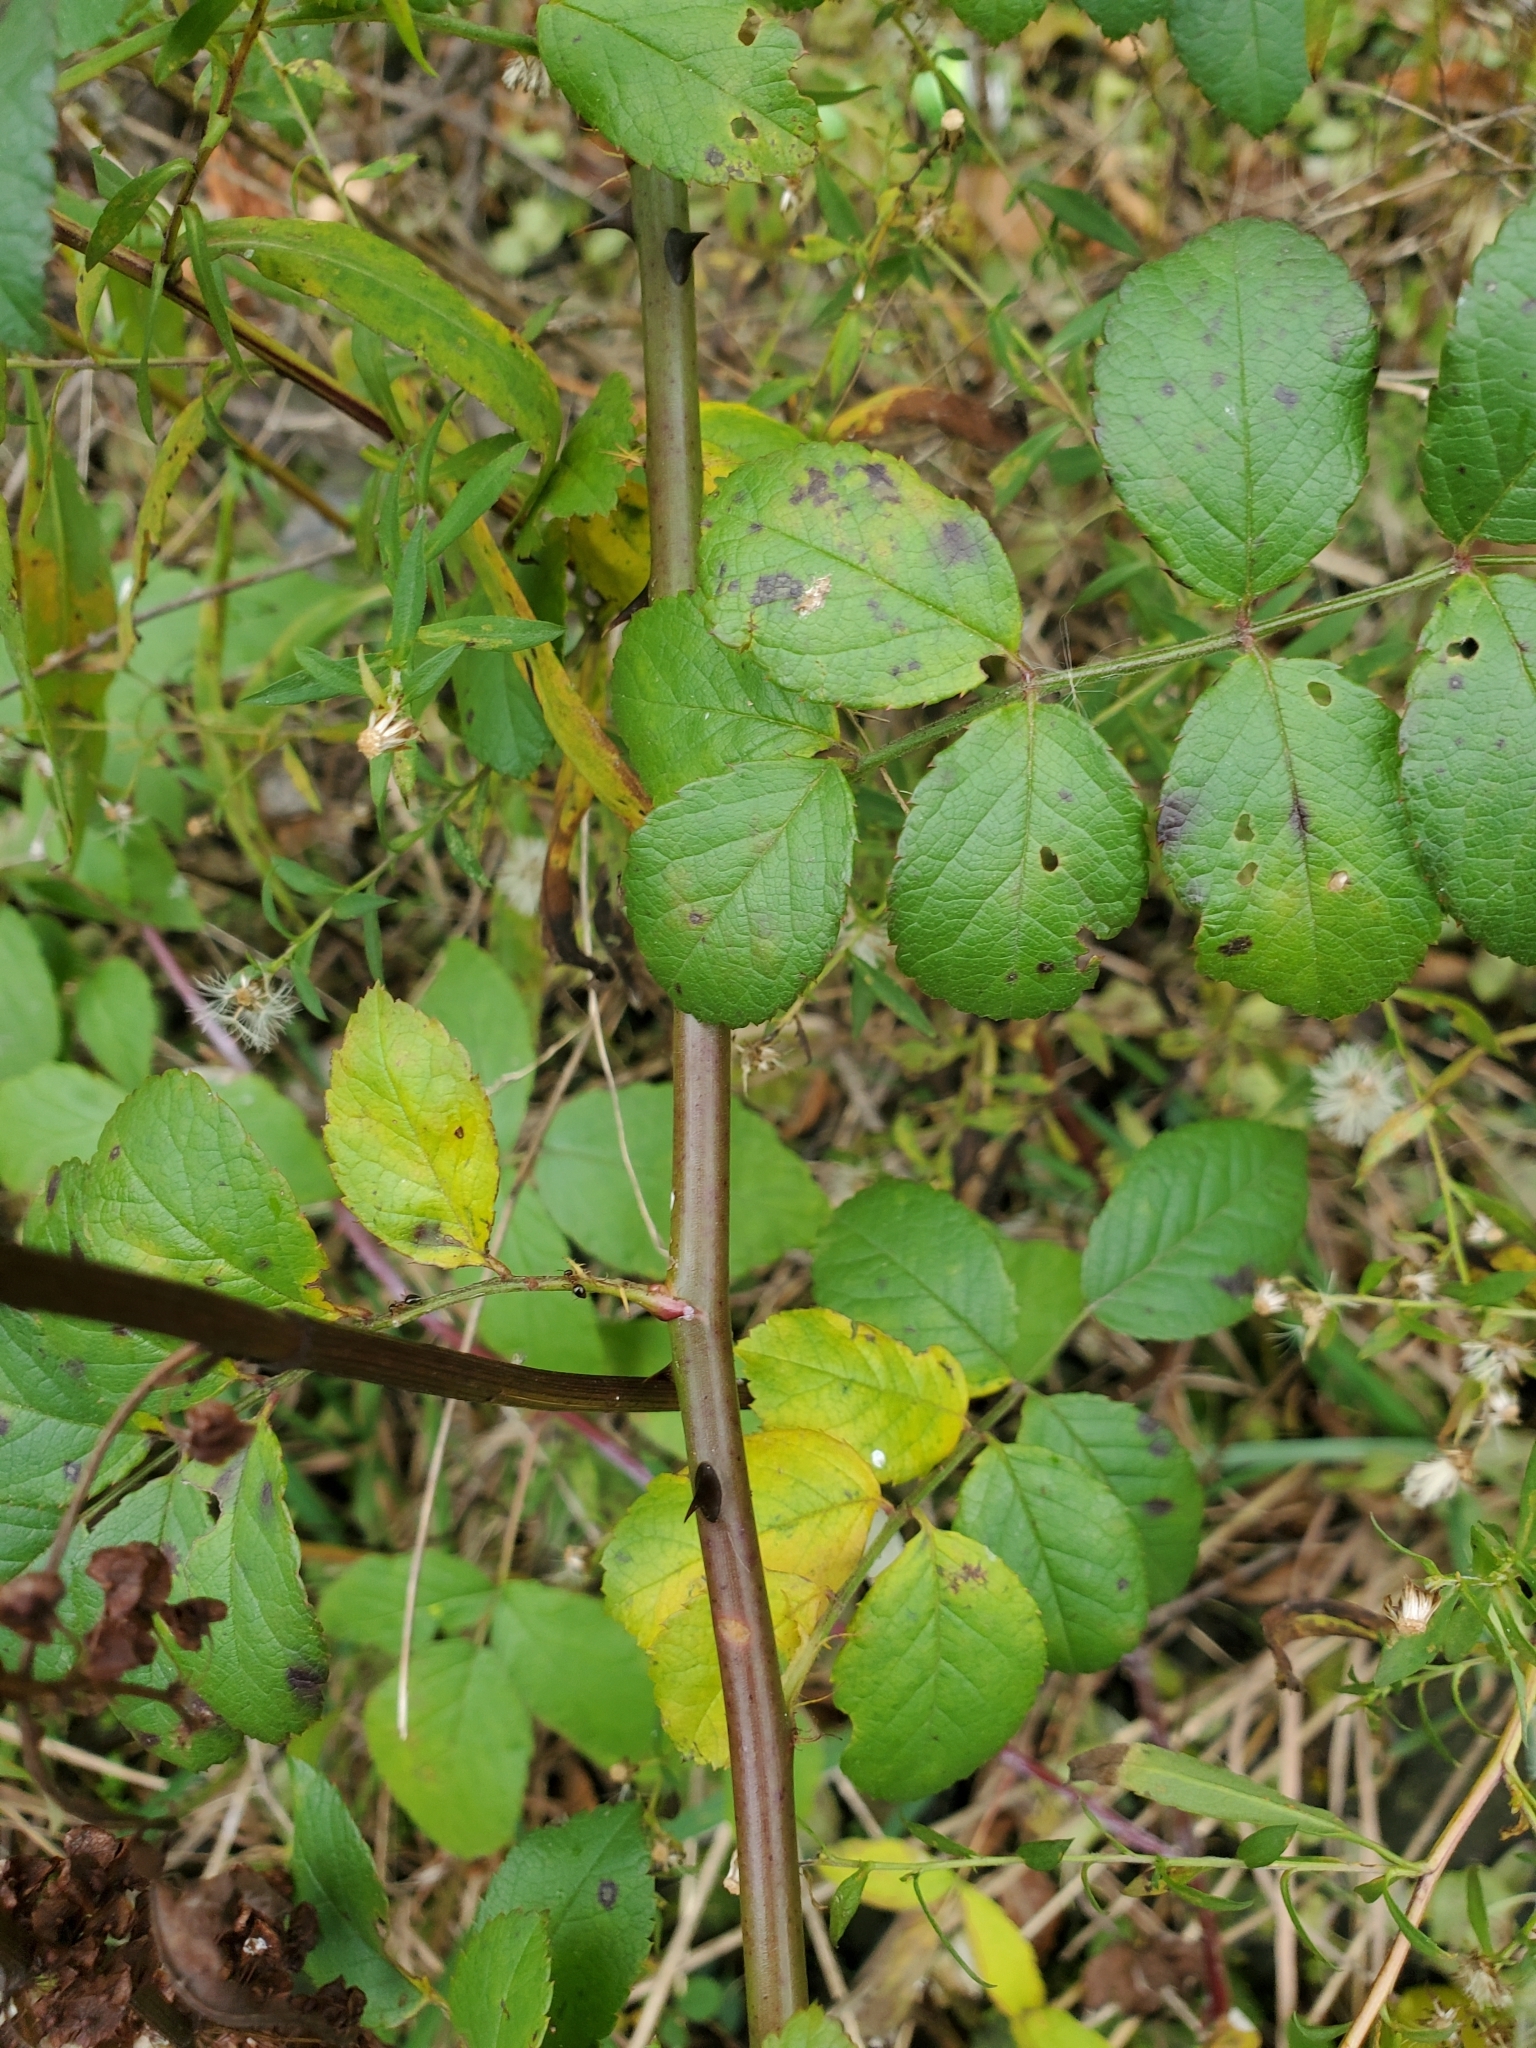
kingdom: Plantae
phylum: Tracheophyta
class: Magnoliopsida
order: Rosales
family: Rosaceae
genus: Rosa
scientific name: Rosa multiflora
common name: Multiflora rose
